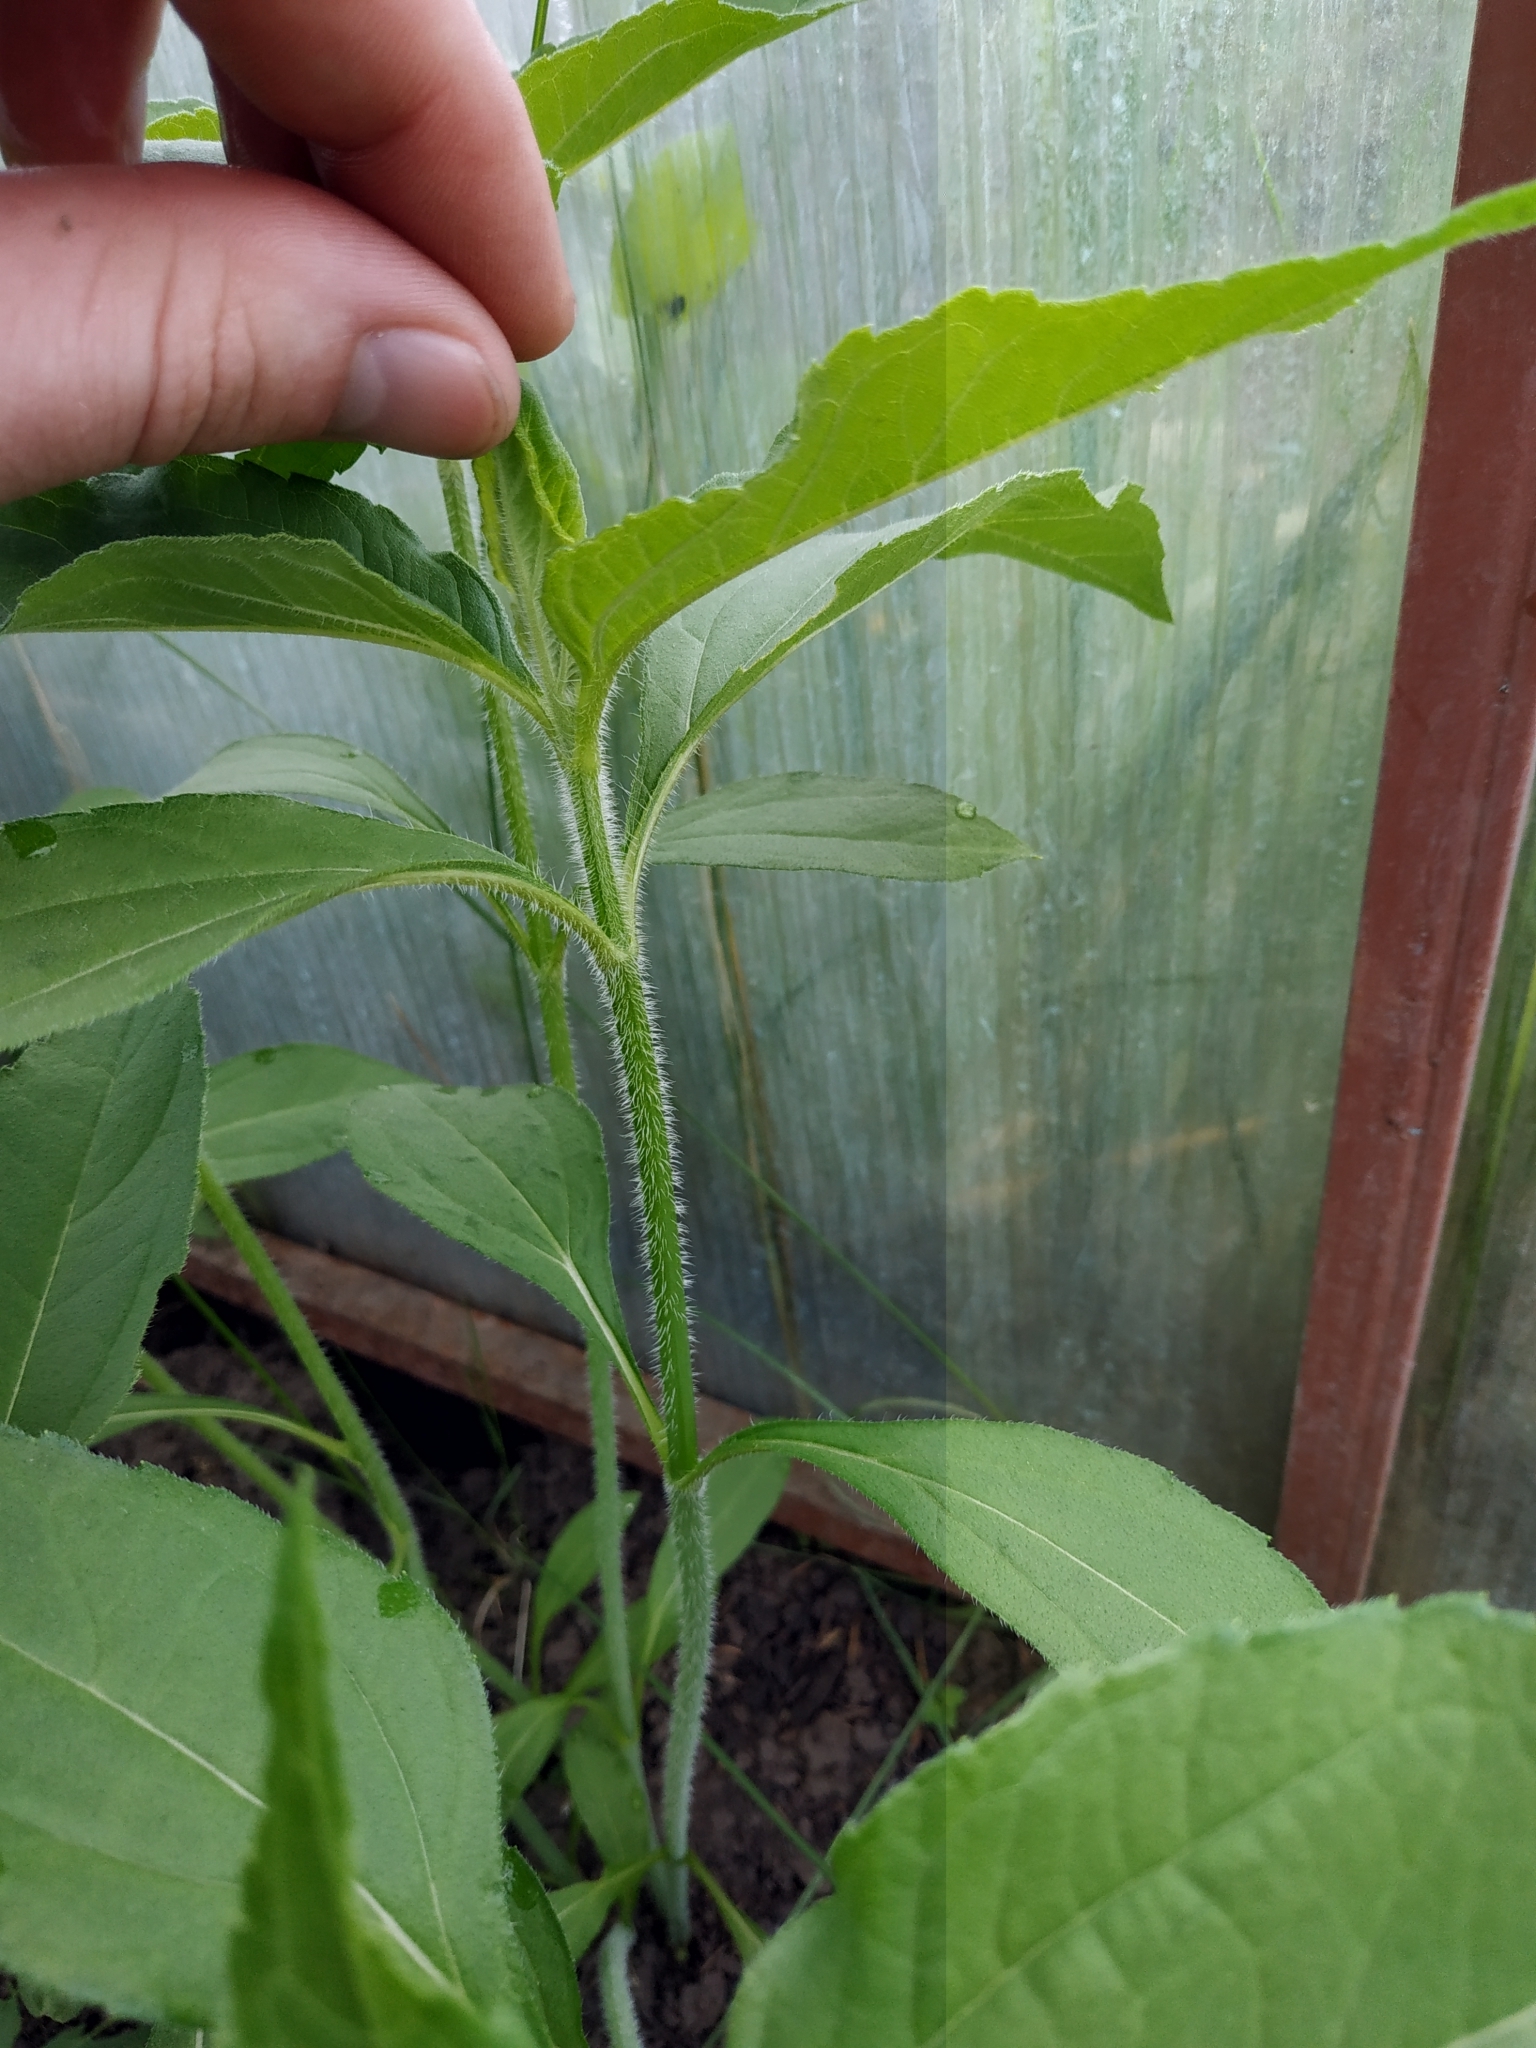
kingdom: Plantae
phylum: Tracheophyta
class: Magnoliopsida
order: Asterales
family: Asteraceae
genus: Helianthus
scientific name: Helianthus tuberosus
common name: Jerusalem artichoke
